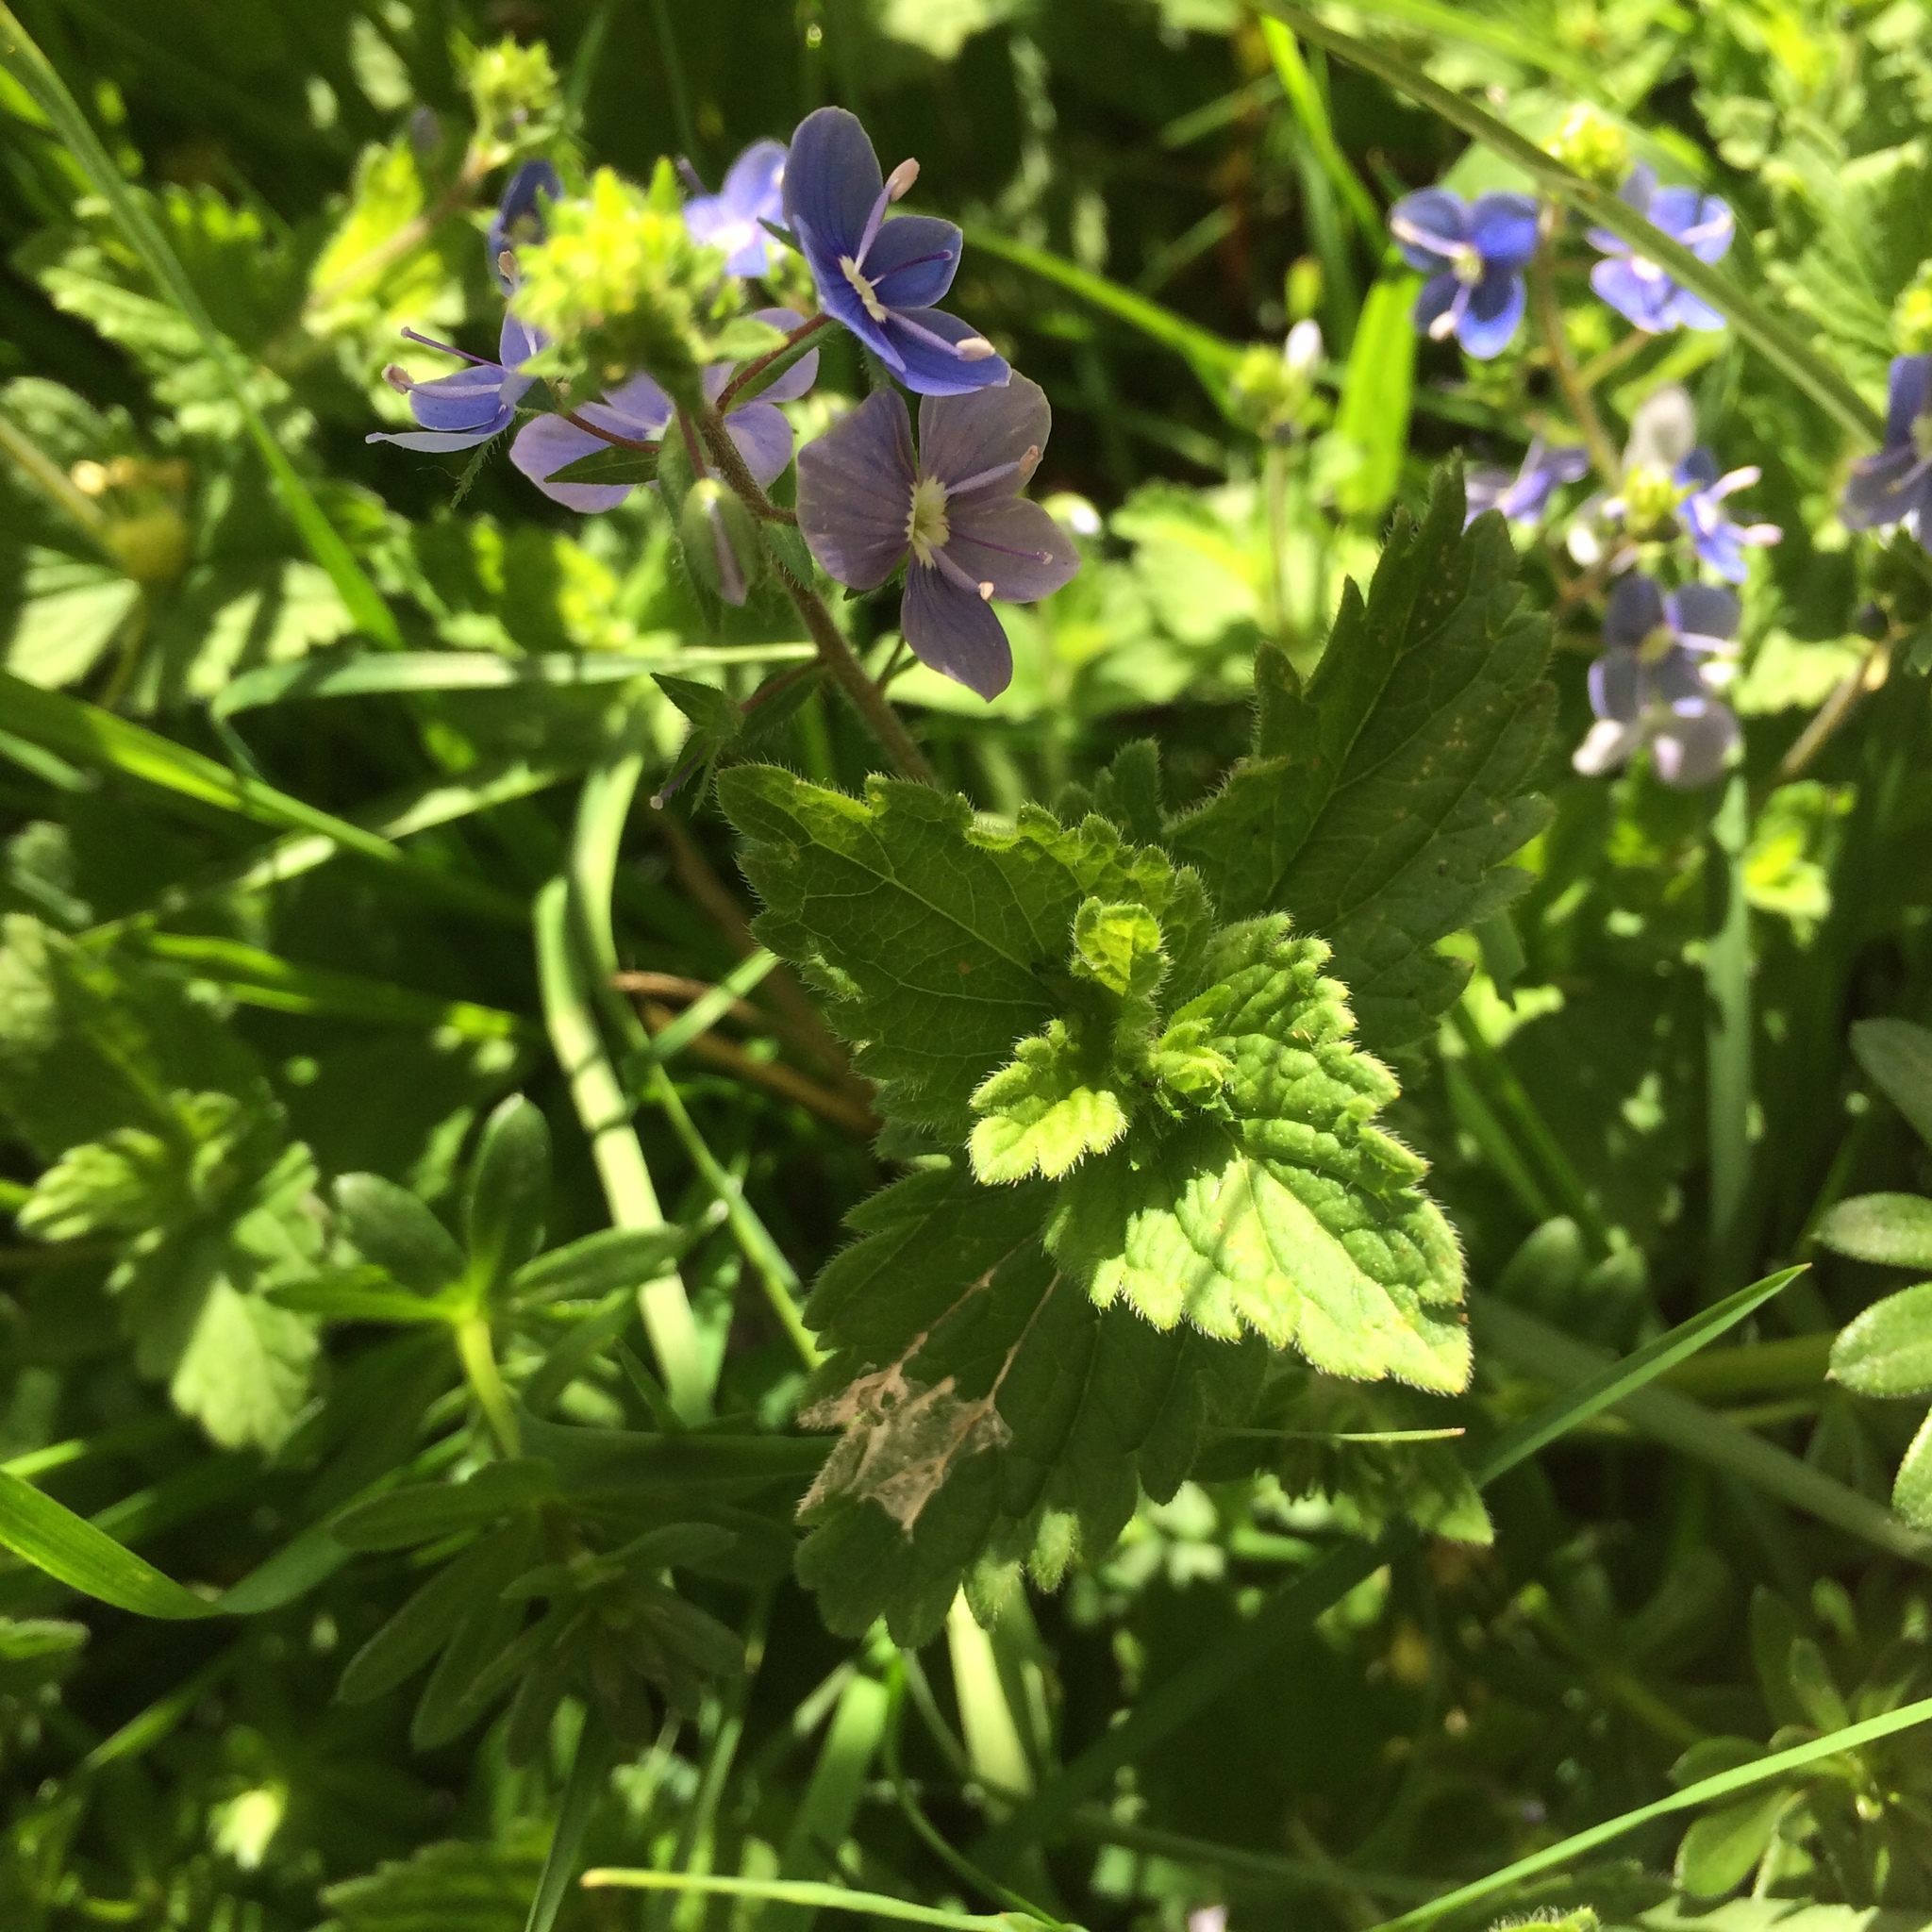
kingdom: Plantae
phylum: Tracheophyta
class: Magnoliopsida
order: Lamiales
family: Plantaginaceae
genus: Veronica
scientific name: Veronica chamaedrys
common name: Germander speedwell
